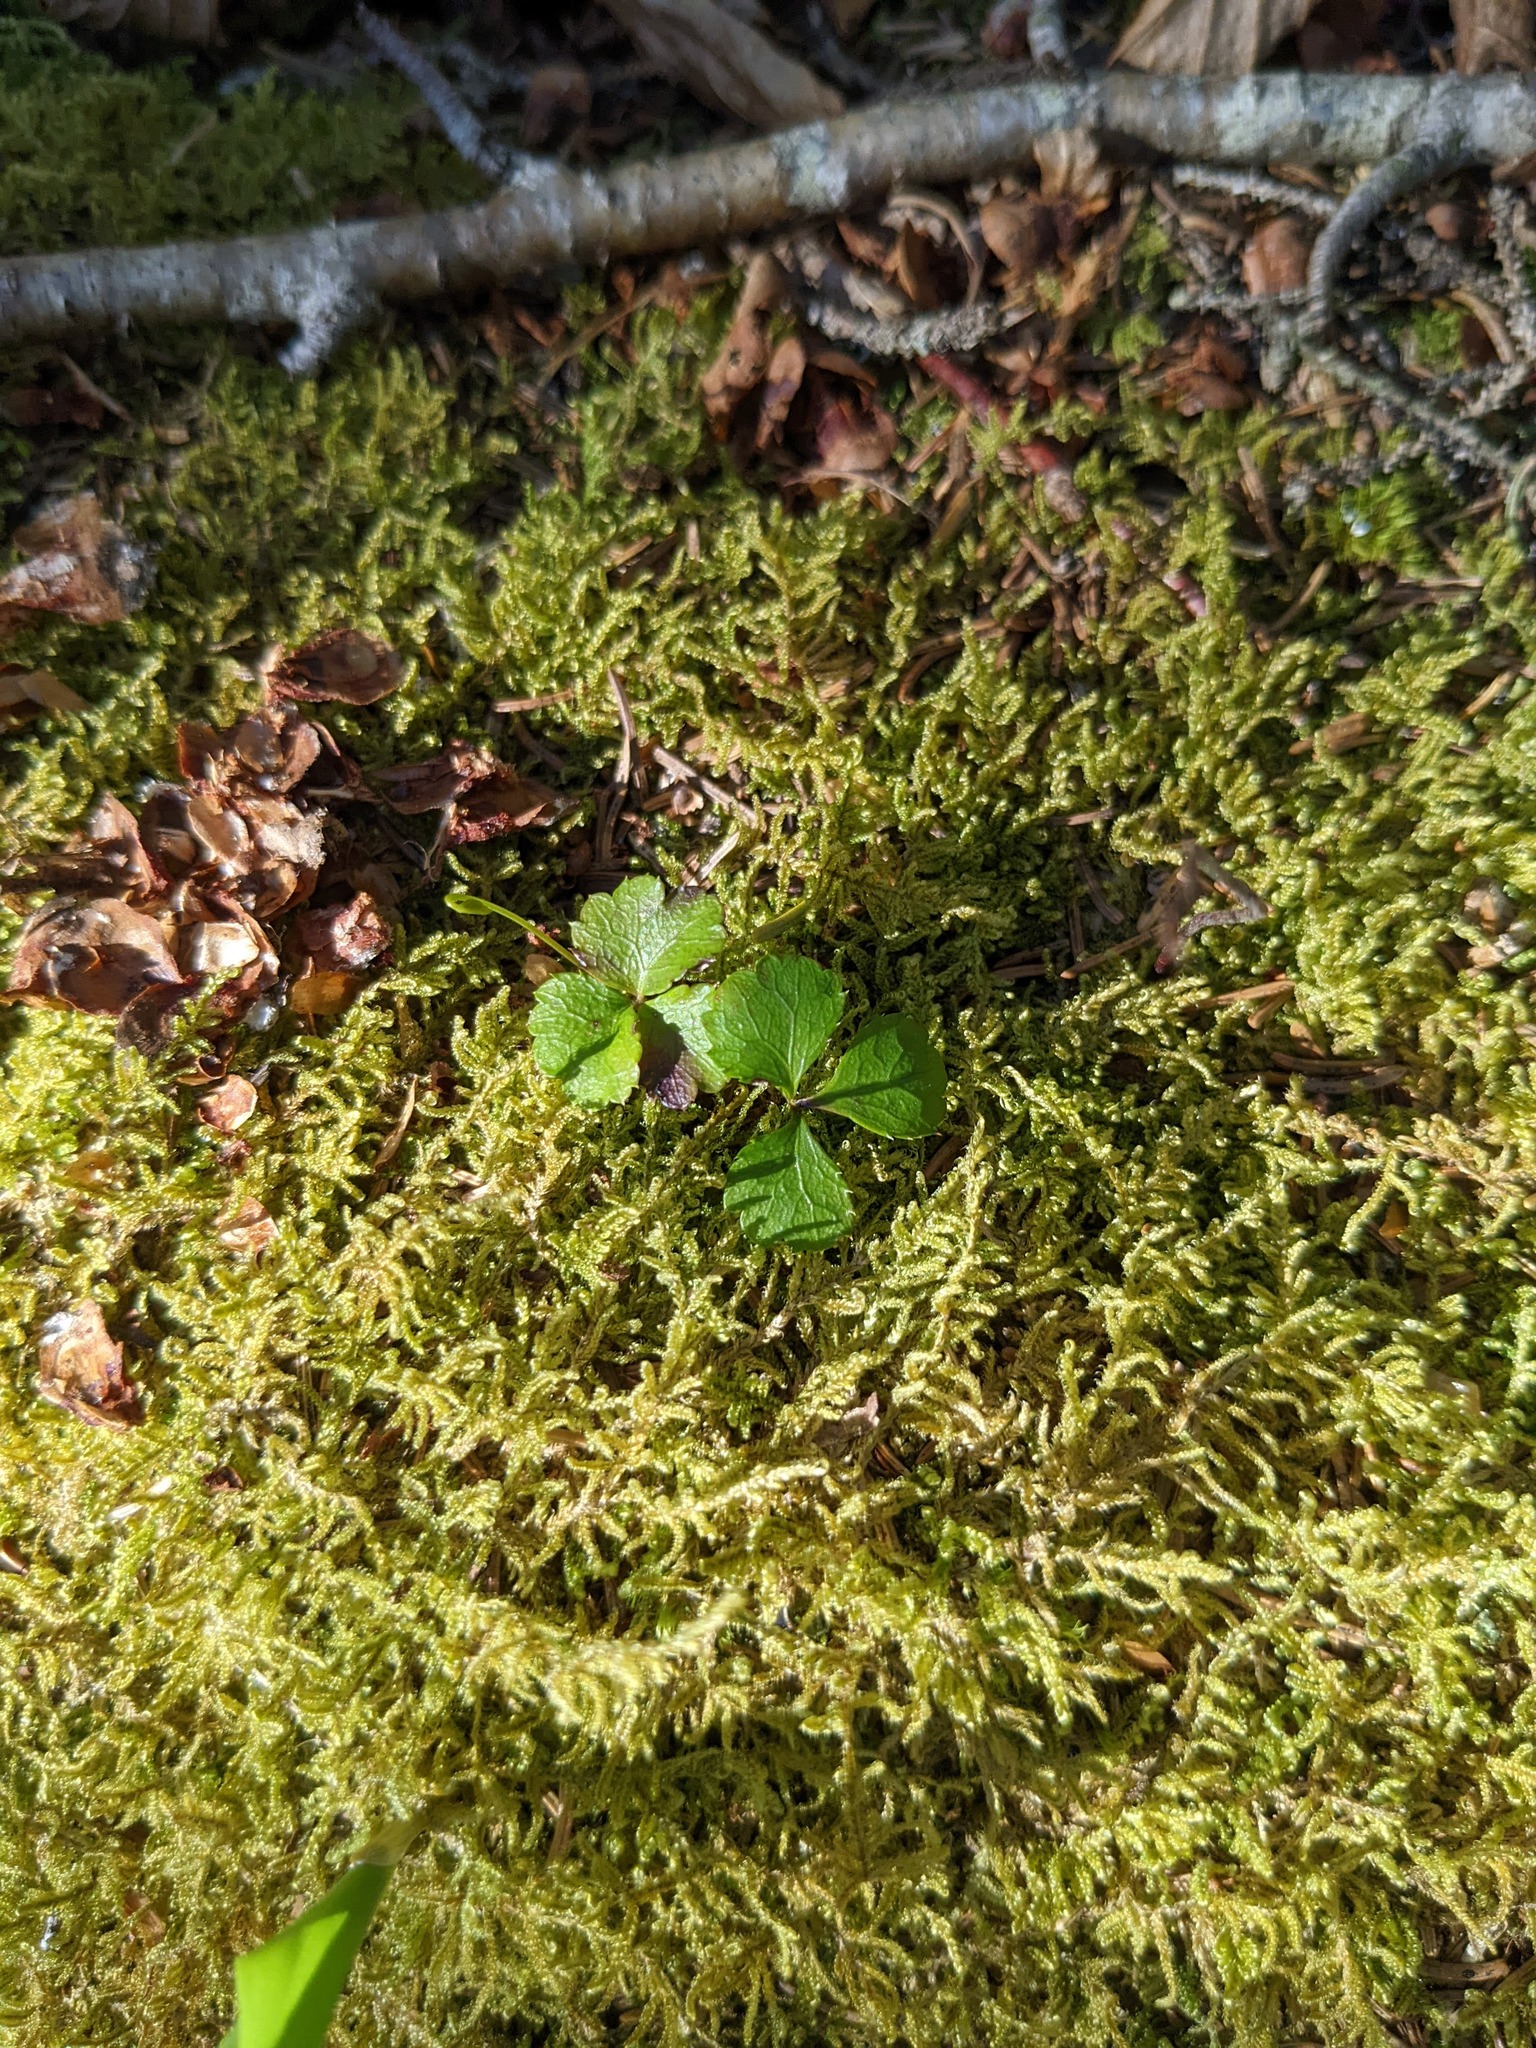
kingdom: Plantae
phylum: Bryophyta
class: Bryopsida
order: Hypnales
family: Callicladiaceae
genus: Callicladium
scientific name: Callicladium imponens
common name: Brocade moss
